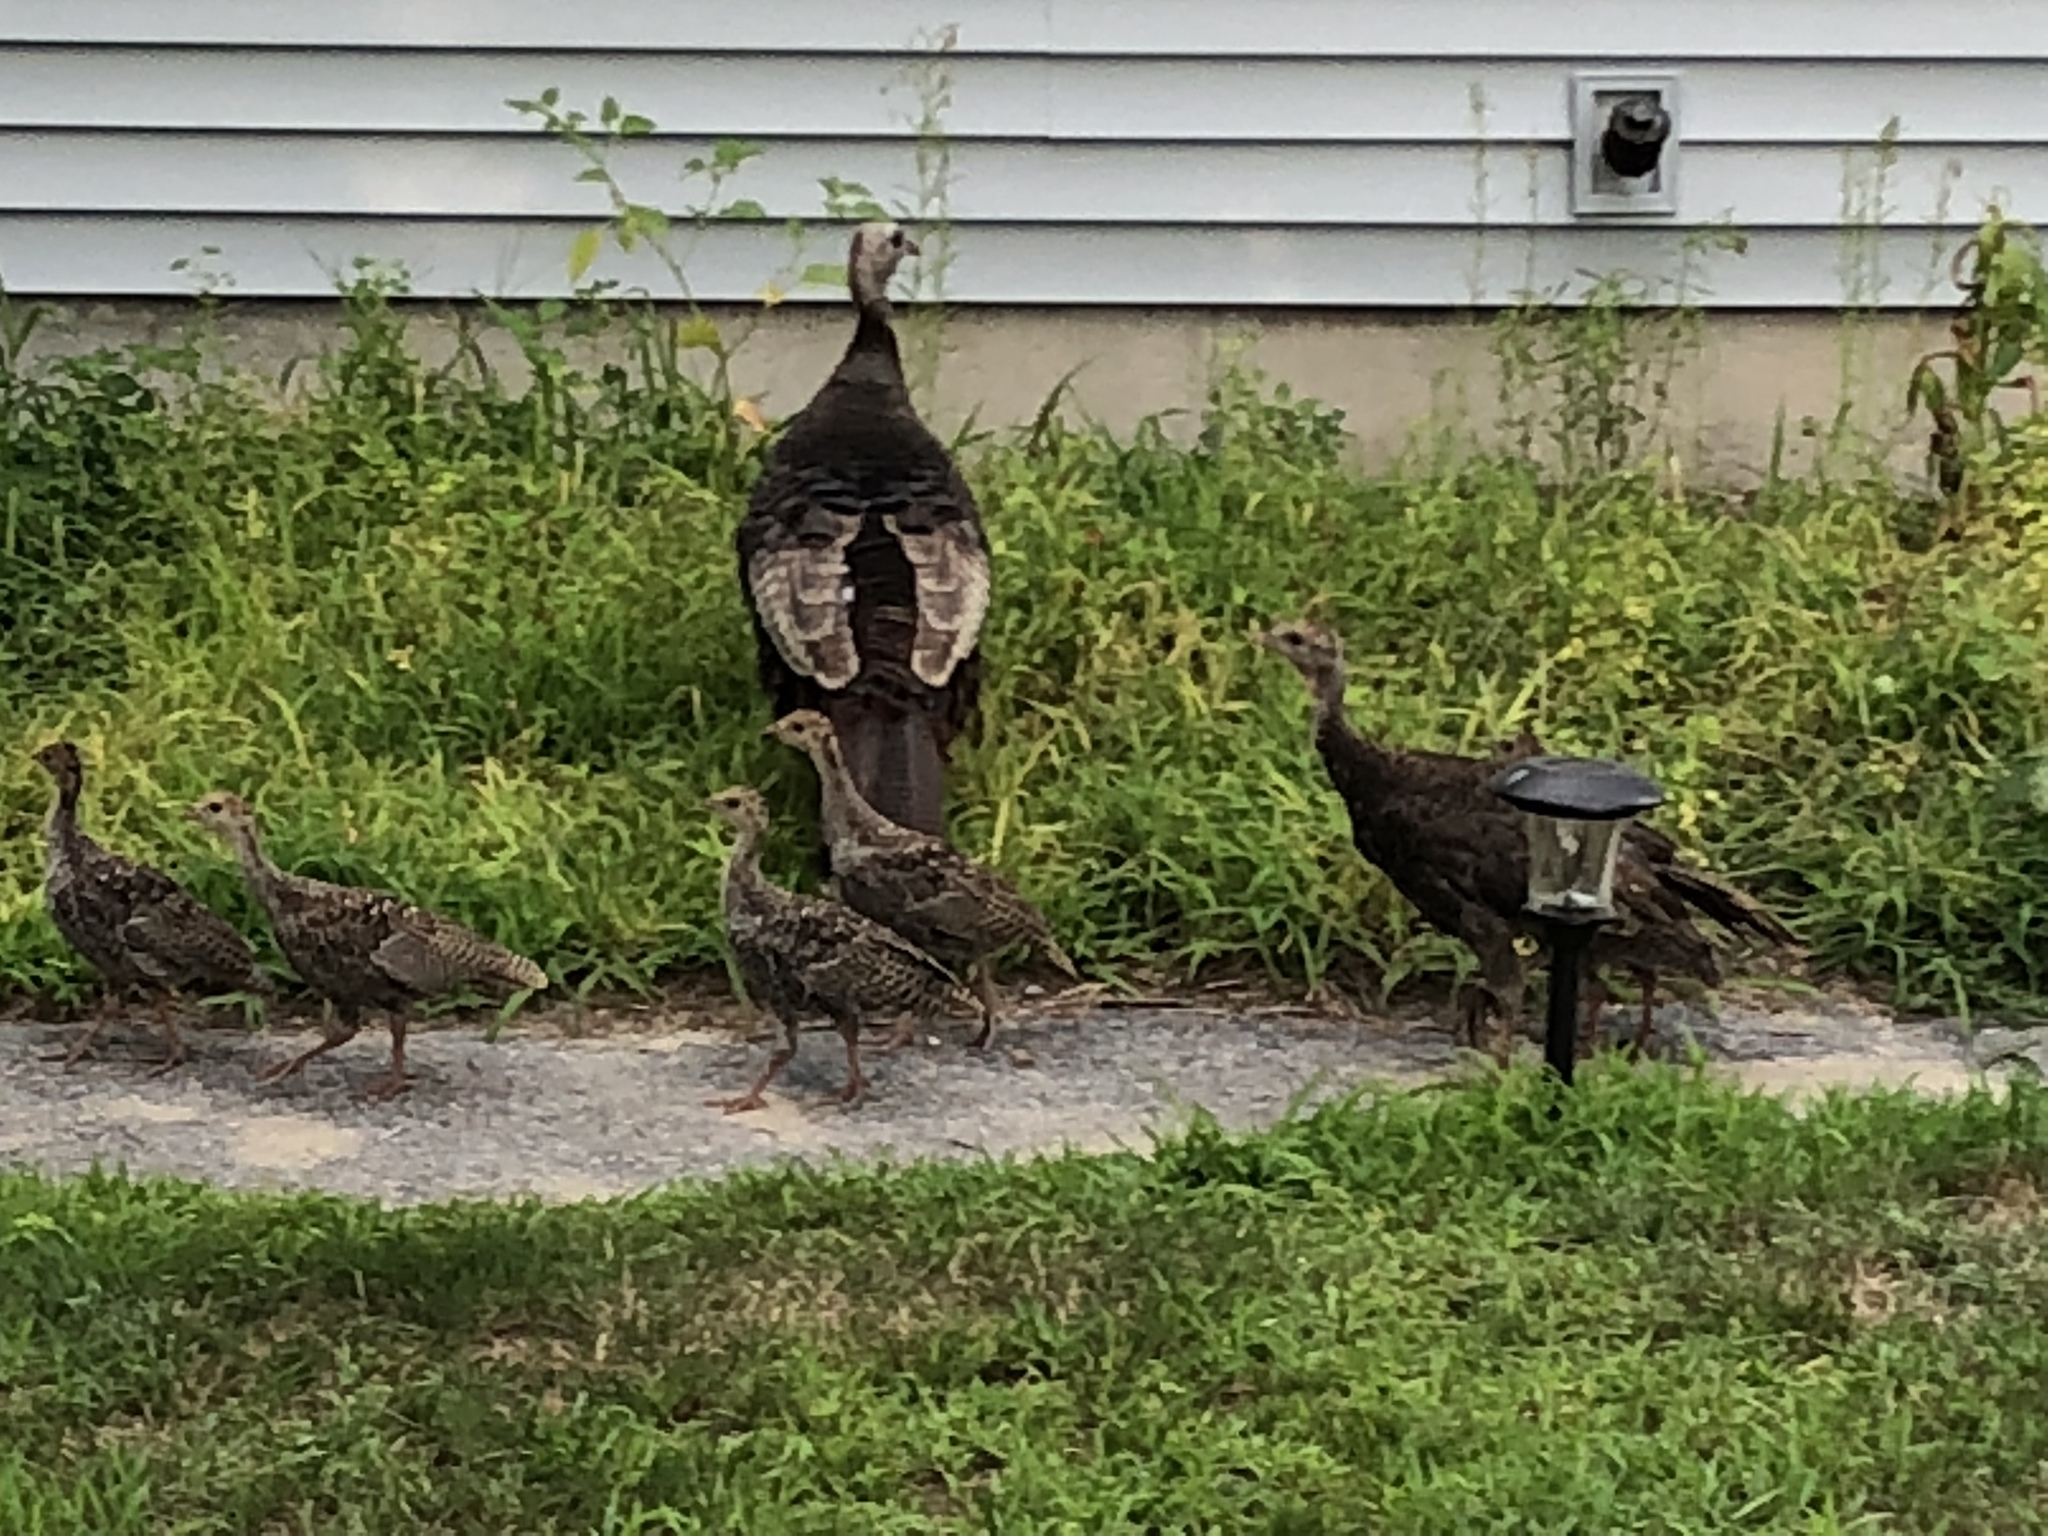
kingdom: Animalia
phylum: Chordata
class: Aves
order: Galliformes
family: Phasianidae
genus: Meleagris
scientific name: Meleagris gallopavo
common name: Wild turkey
